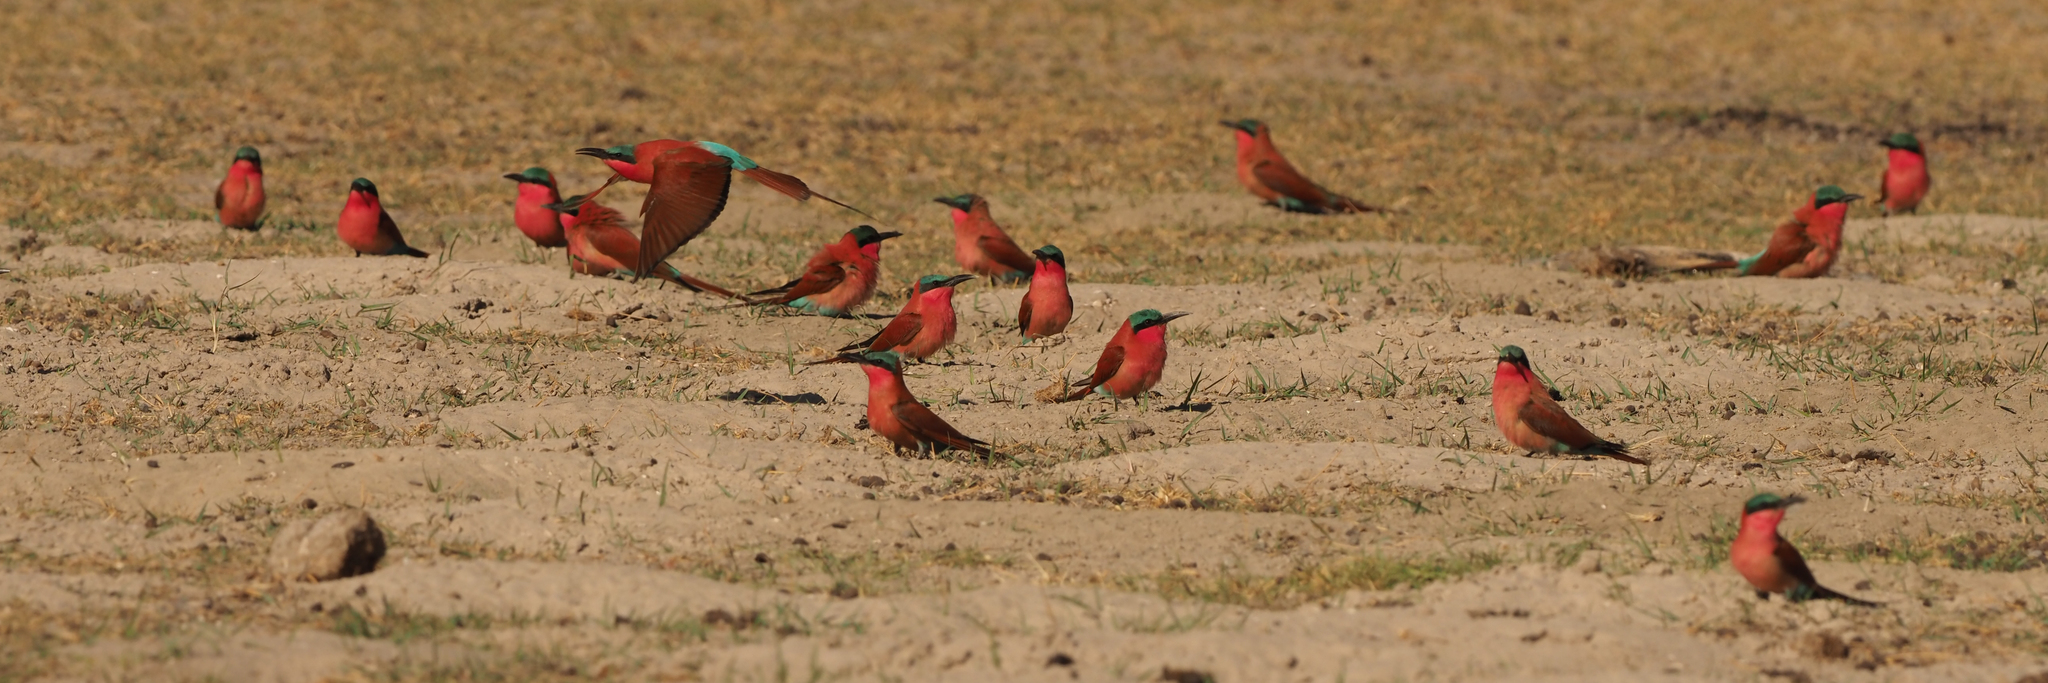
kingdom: Animalia
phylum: Chordata
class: Aves
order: Coraciiformes
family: Meropidae
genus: Merops
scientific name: Merops nubicoides
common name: Southern carmine bee-eater
